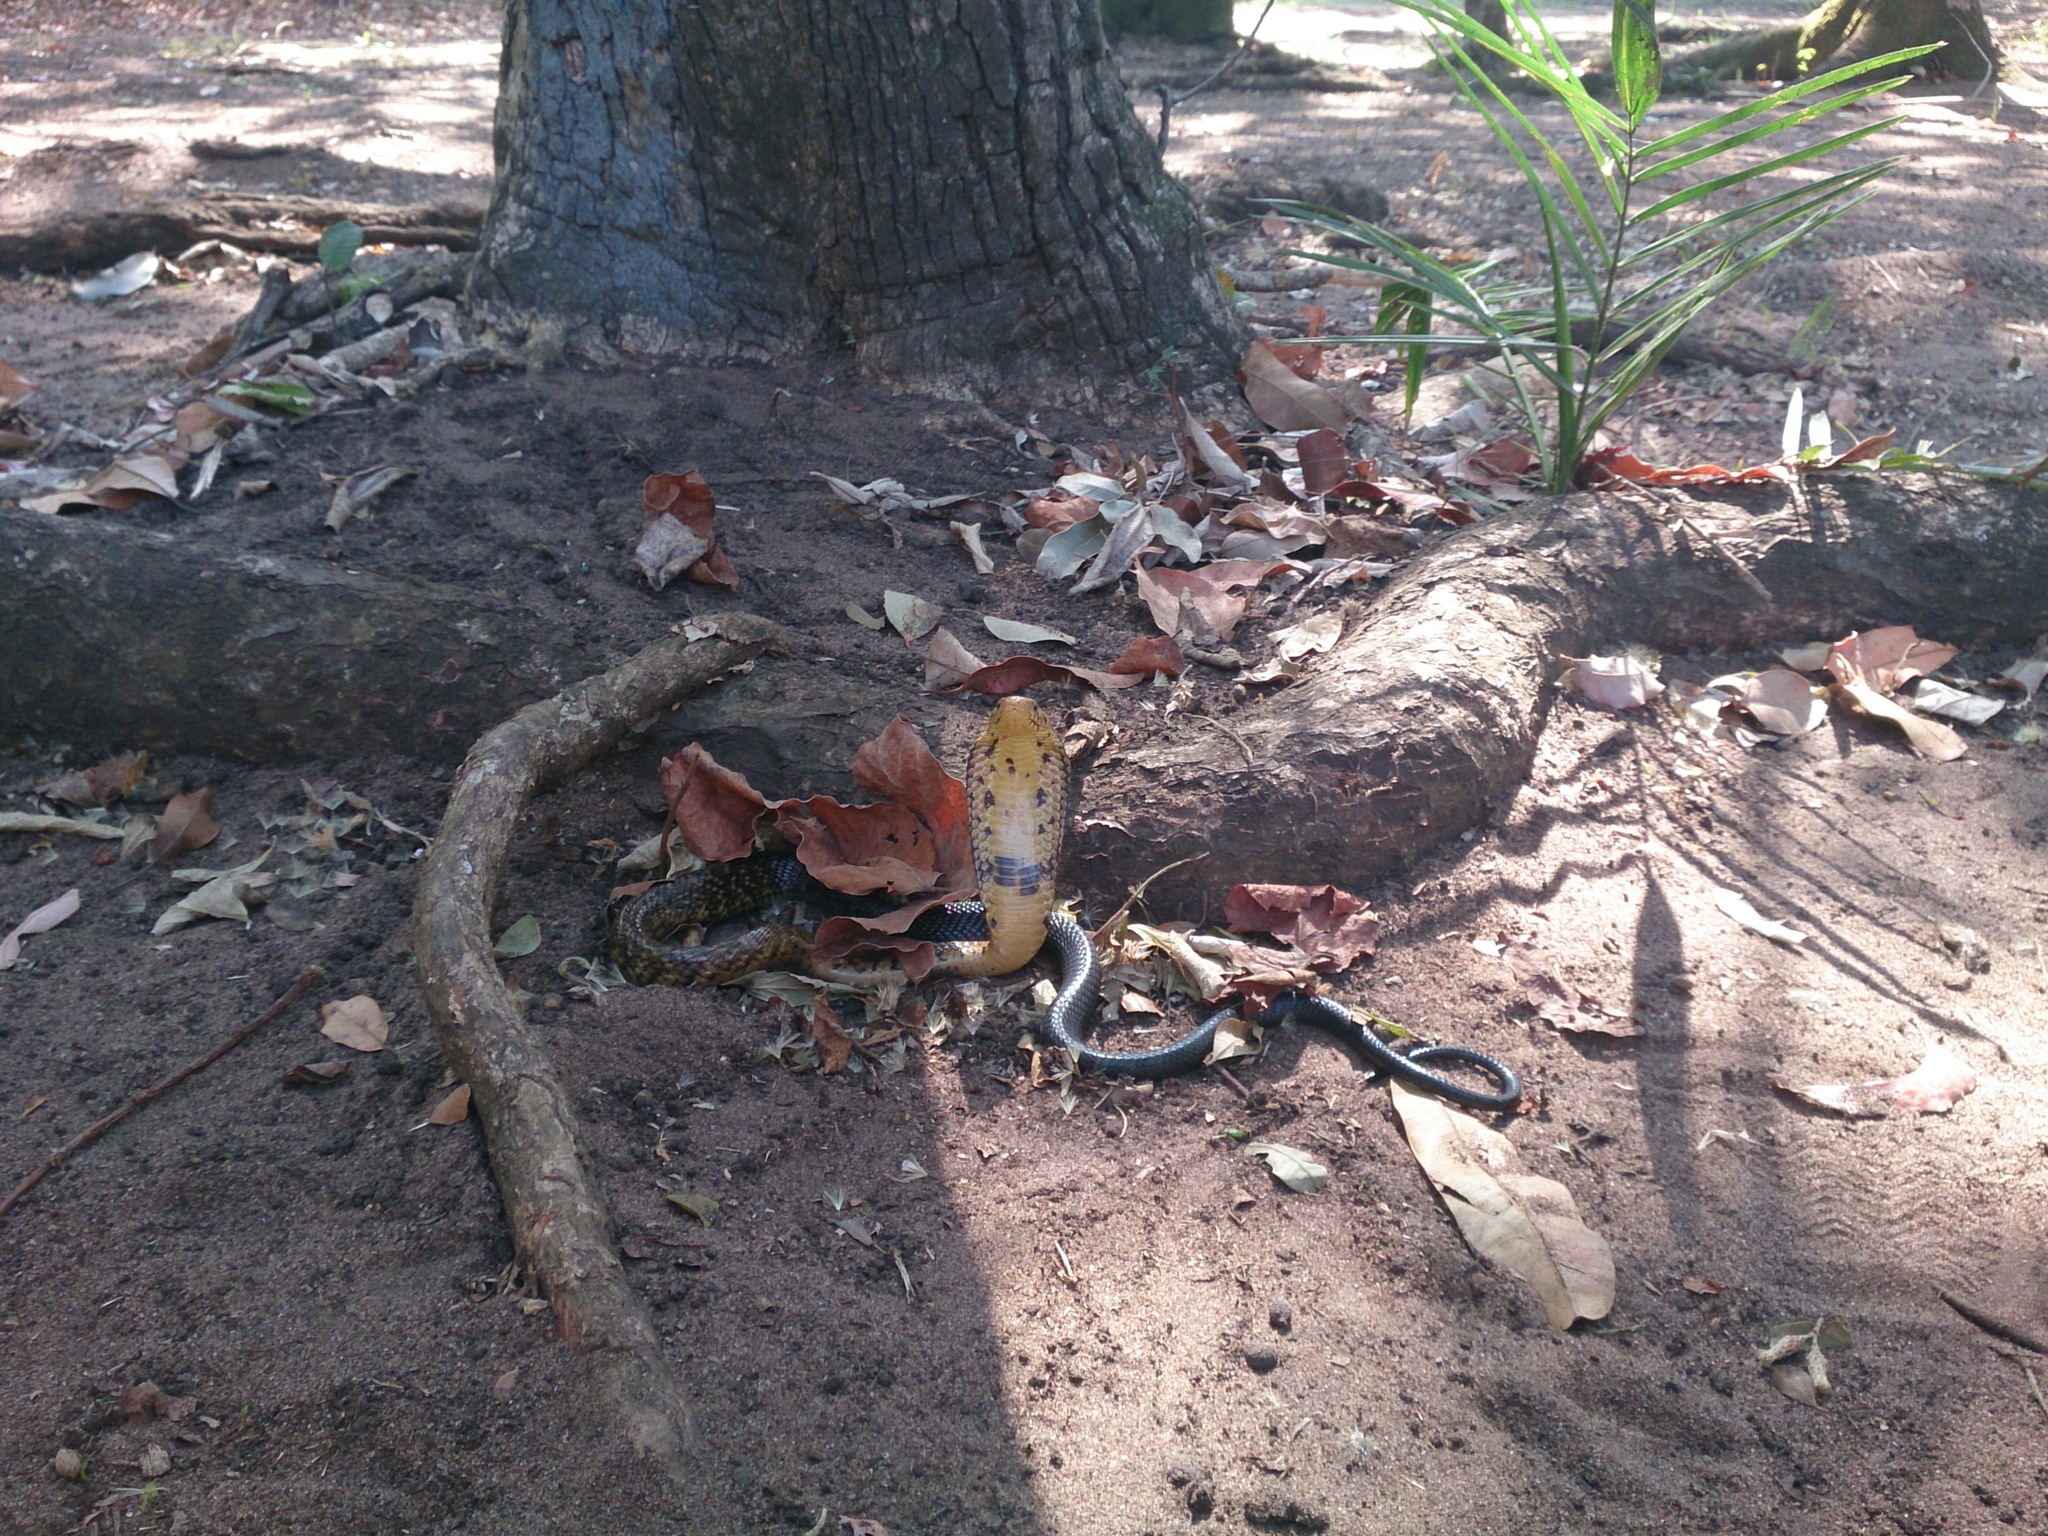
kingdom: Animalia
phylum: Chordata
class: Squamata
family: Elapidae
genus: Naja
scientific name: Naja subfulva
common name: Brown forest cobra
